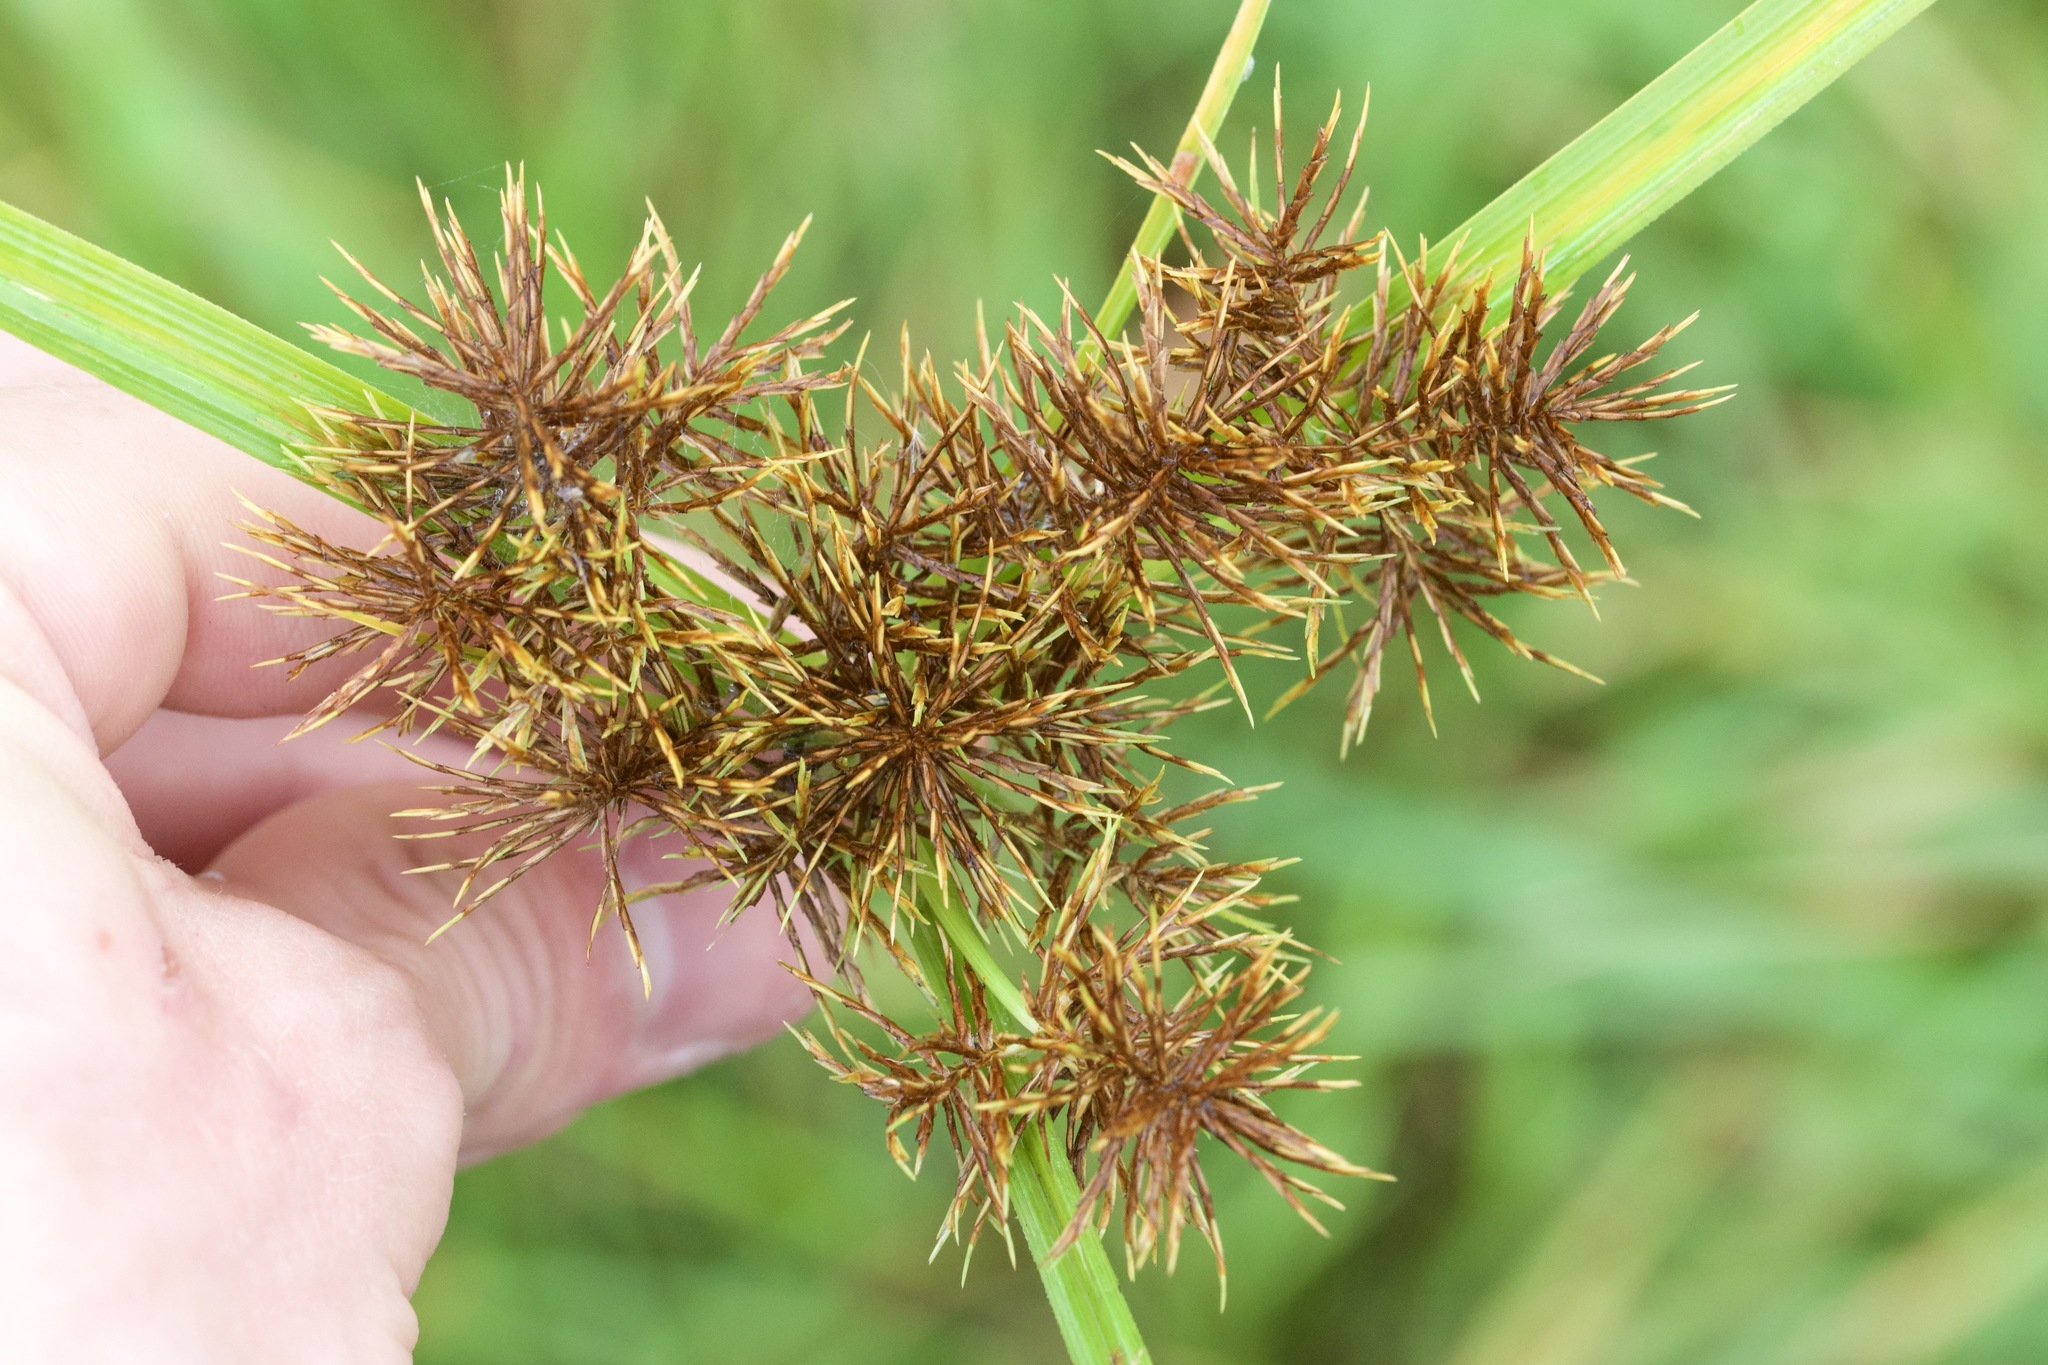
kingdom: Plantae
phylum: Tracheophyta
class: Liliopsida
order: Poales
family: Cyperaceae
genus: Cyperus
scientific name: Cyperus odoratus
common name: Fragrant flatsedge
